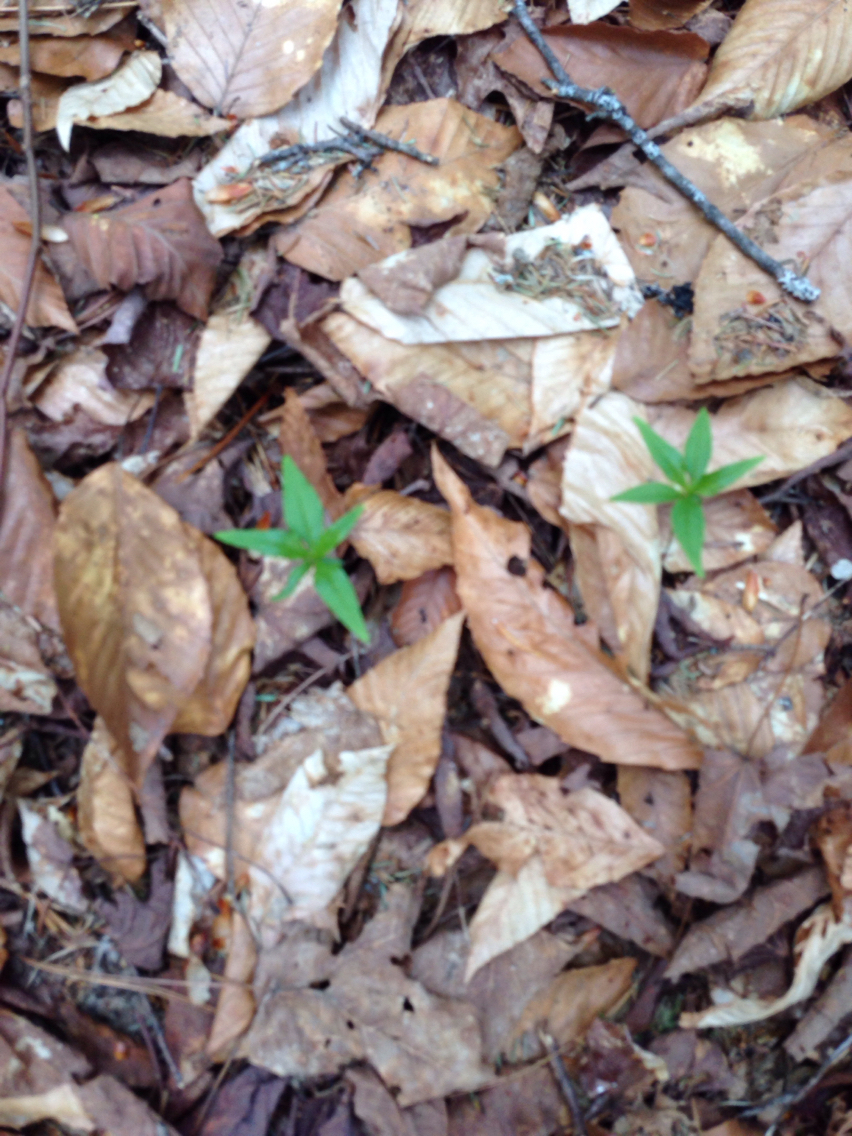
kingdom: Plantae
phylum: Tracheophyta
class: Magnoliopsida
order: Ericales
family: Primulaceae
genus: Lysimachia
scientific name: Lysimachia borealis
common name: American starflower
